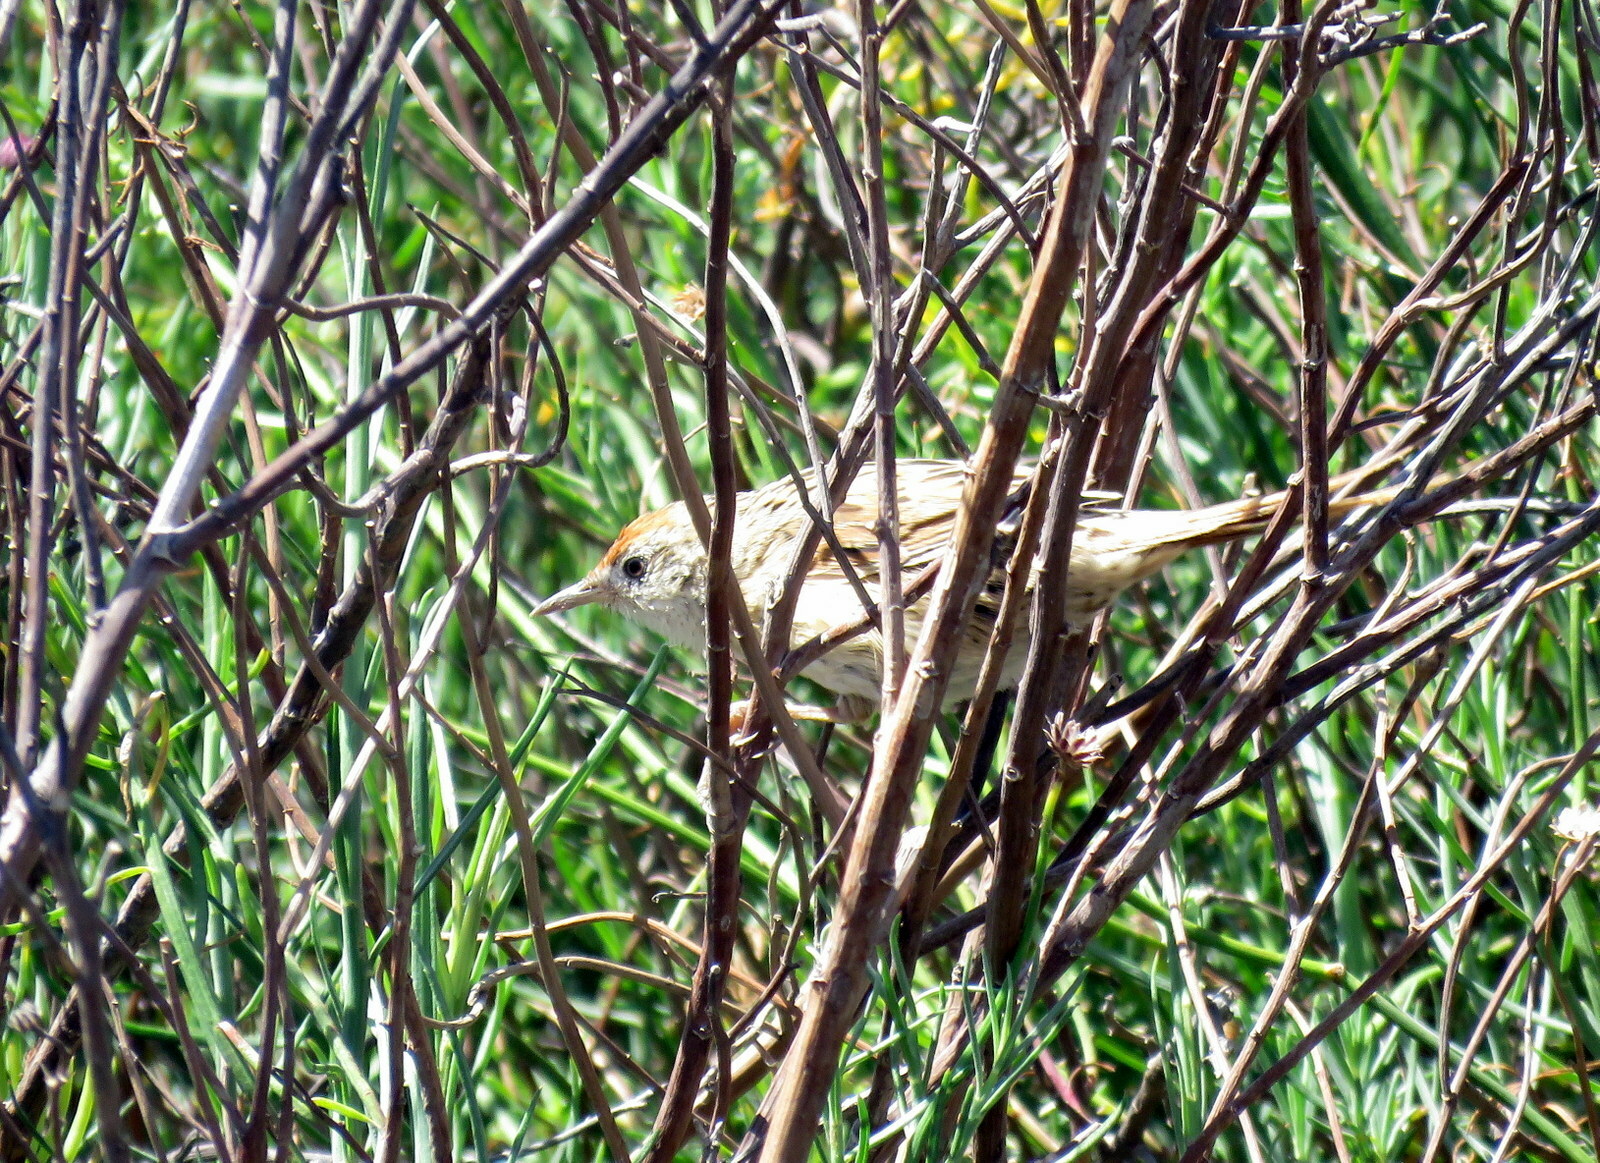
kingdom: Animalia
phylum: Chordata
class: Aves
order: Passeriformes
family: Furnariidae
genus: Spartonoica
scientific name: Spartonoica maluroides
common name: Bay-capped wren-spinetail
